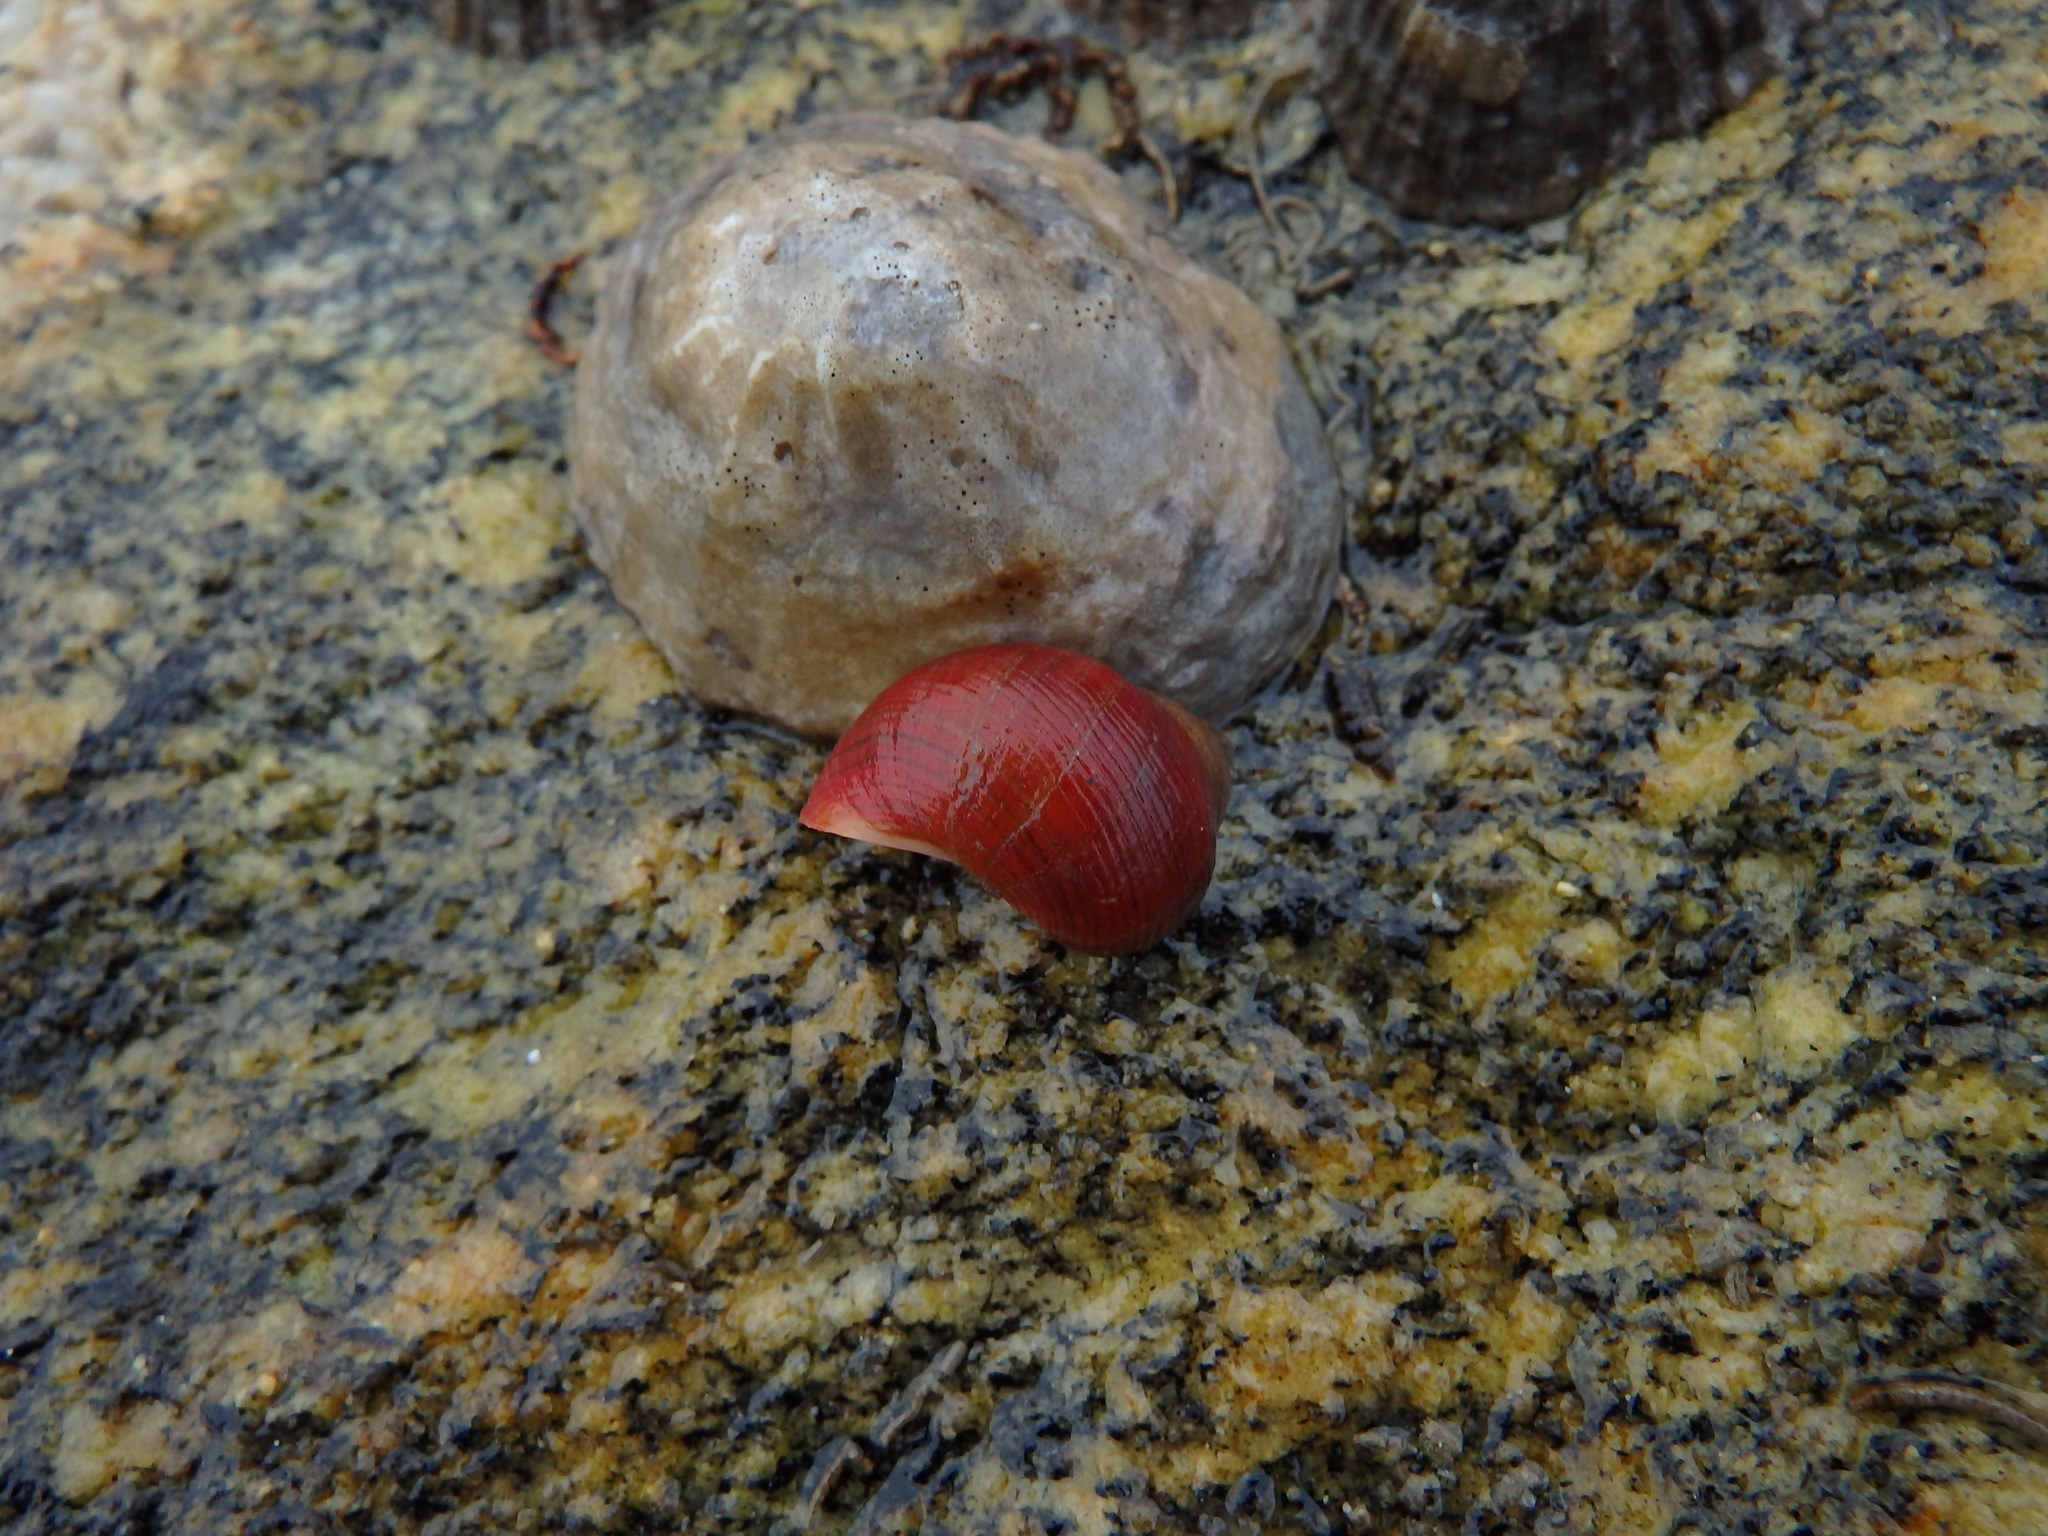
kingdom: Animalia
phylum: Mollusca
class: Gastropoda
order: Littorinimorpha
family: Littorinidae
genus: Littorina
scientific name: Littorina littorea
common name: Common periwinkle
